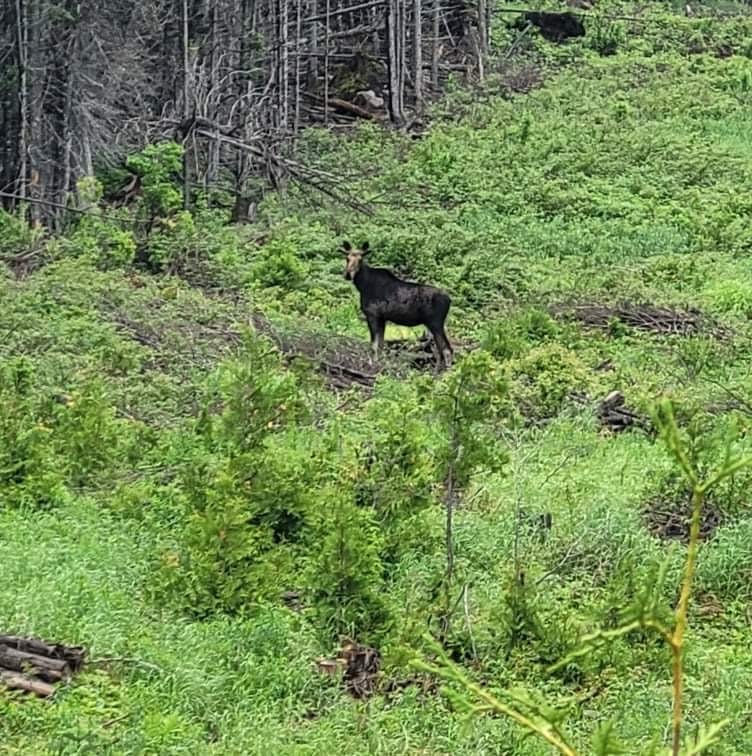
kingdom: Animalia
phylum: Chordata
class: Mammalia
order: Artiodactyla
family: Cervidae
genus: Alces
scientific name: Alces alces
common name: Moose
